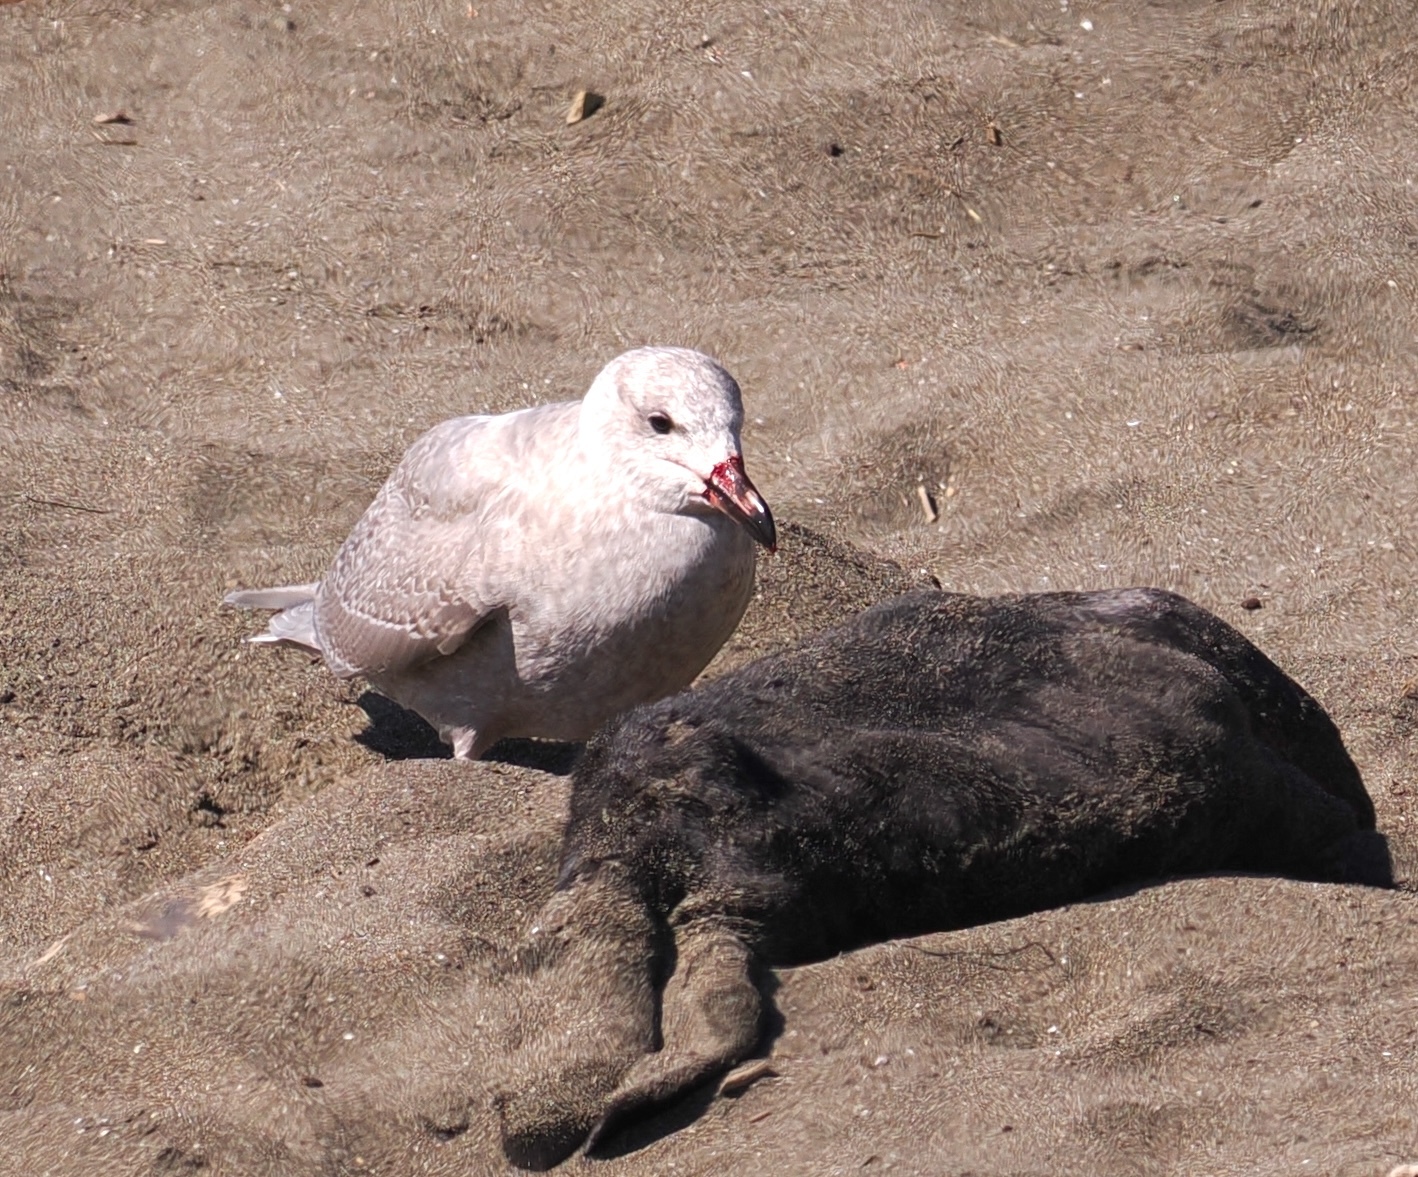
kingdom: Animalia
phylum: Chordata
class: Aves
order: Charadriiformes
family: Laridae
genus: Larus
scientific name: Larus glaucescens
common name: Glaucous-winged gull
